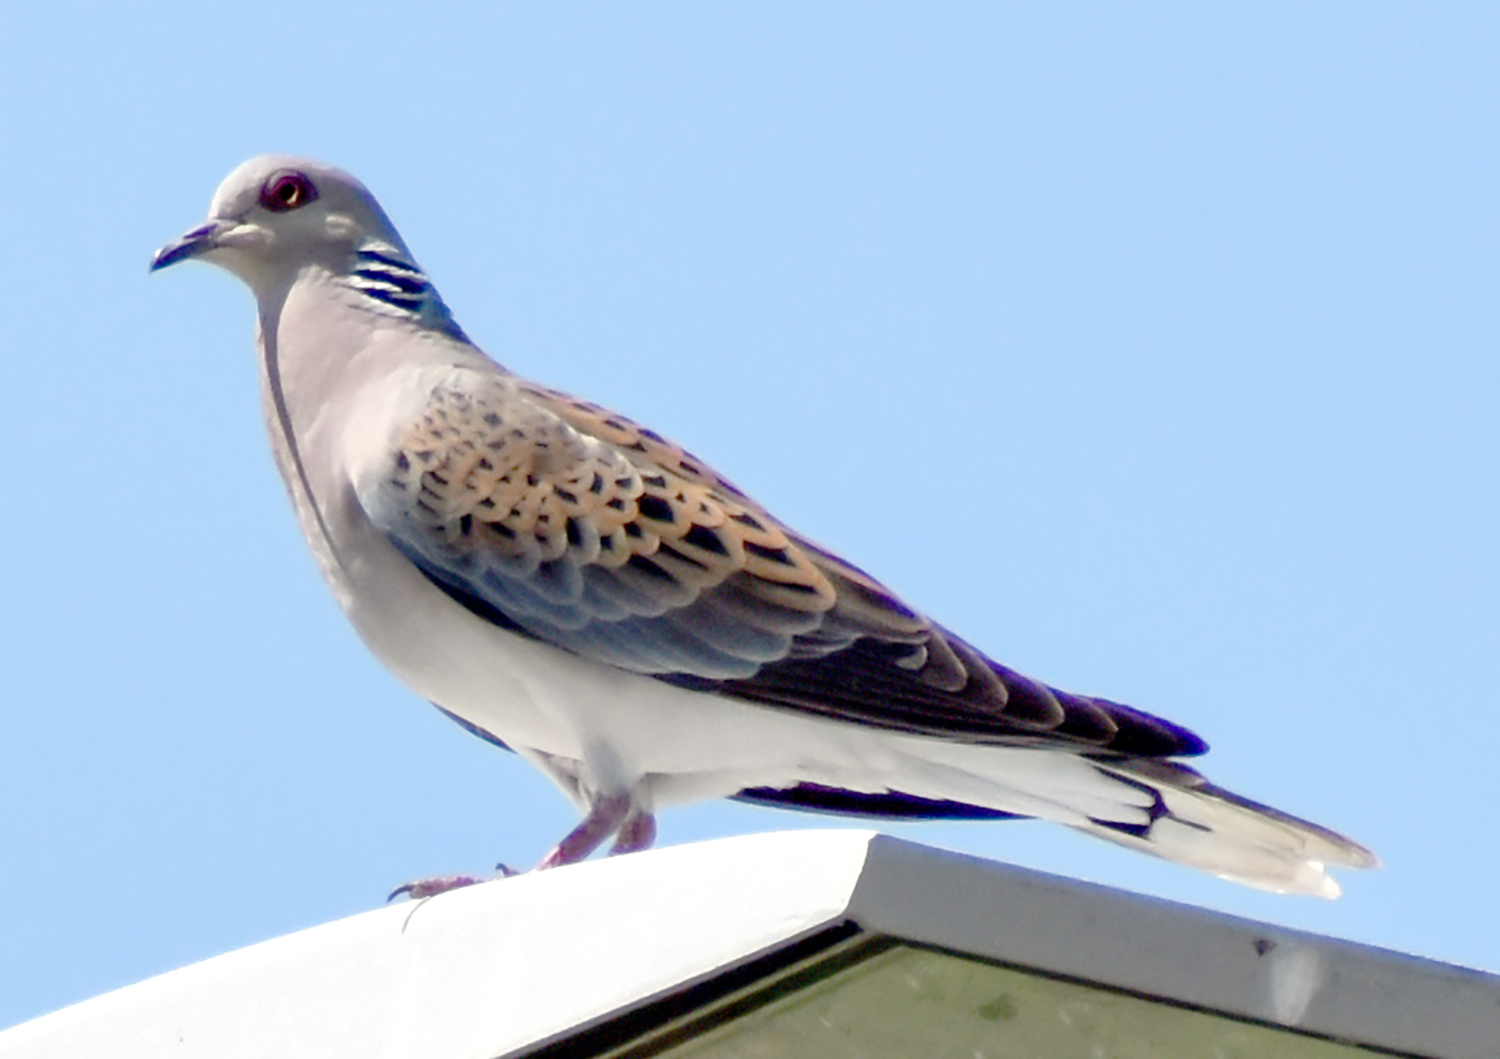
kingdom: Animalia
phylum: Chordata
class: Aves
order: Columbiformes
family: Columbidae
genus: Streptopelia
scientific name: Streptopelia turtur
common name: European turtle dove
